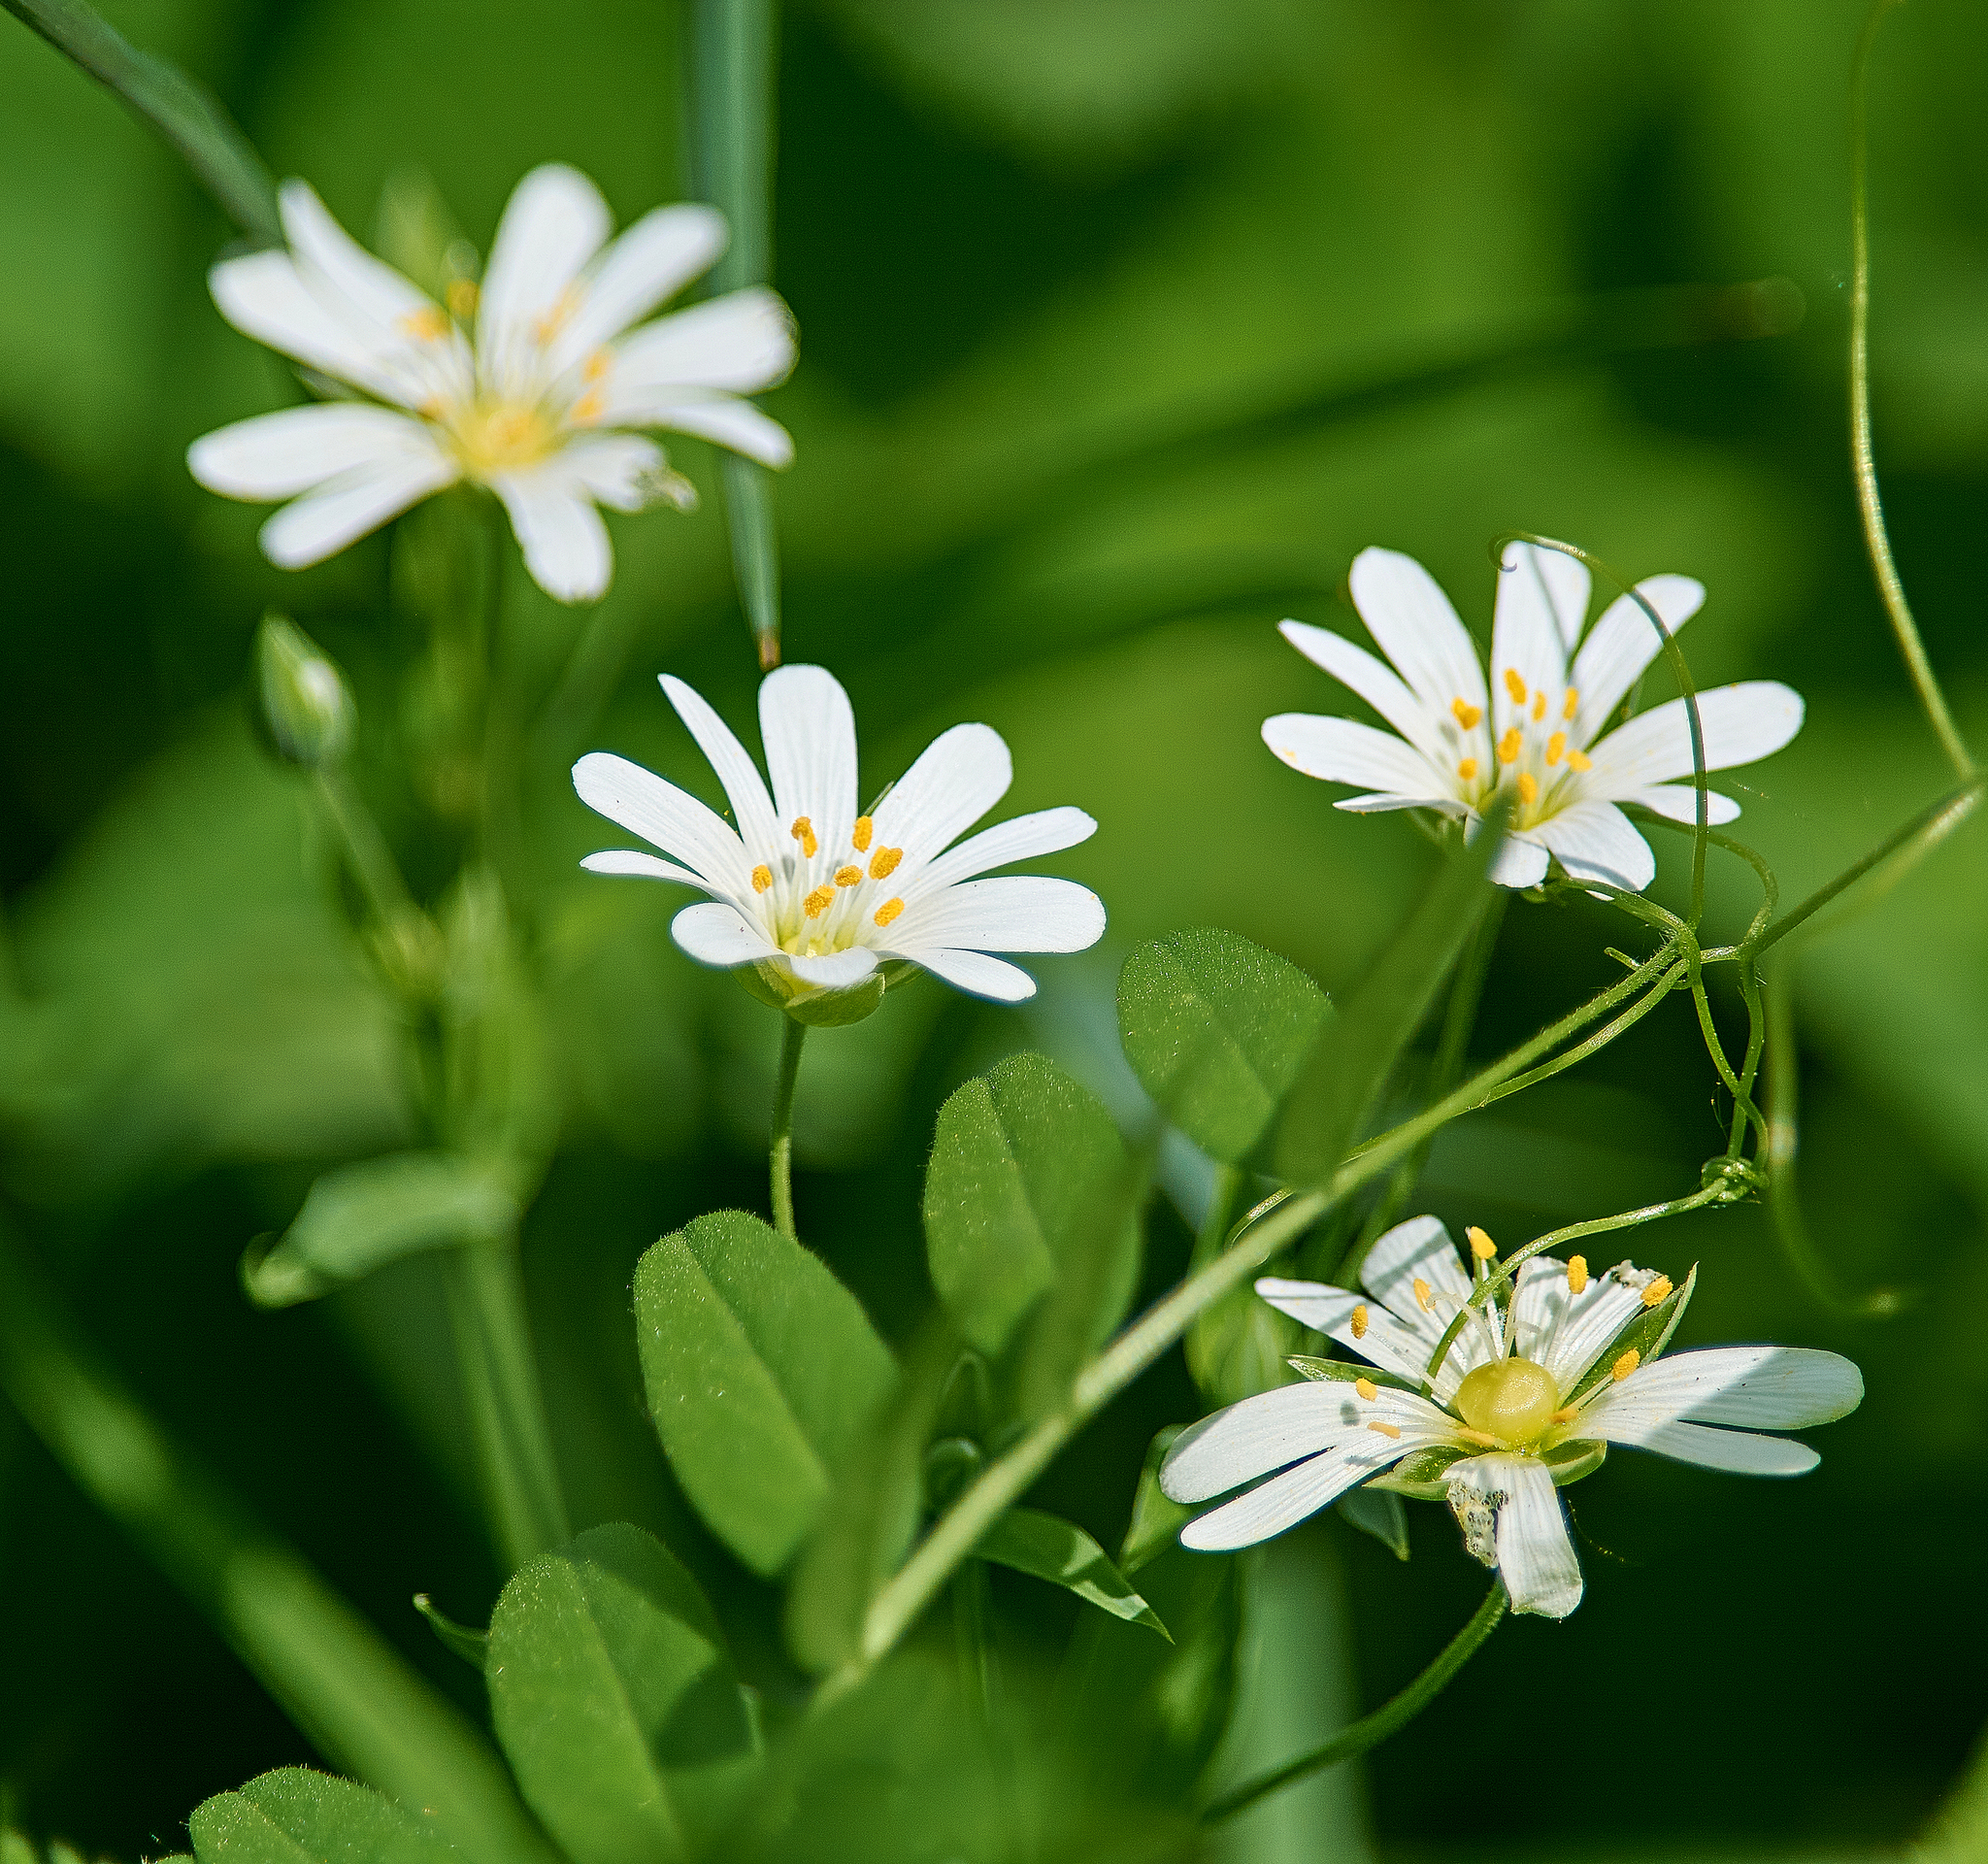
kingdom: Plantae
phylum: Tracheophyta
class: Magnoliopsida
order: Caryophyllales
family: Caryophyllaceae
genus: Rabelera
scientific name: Rabelera holostea
